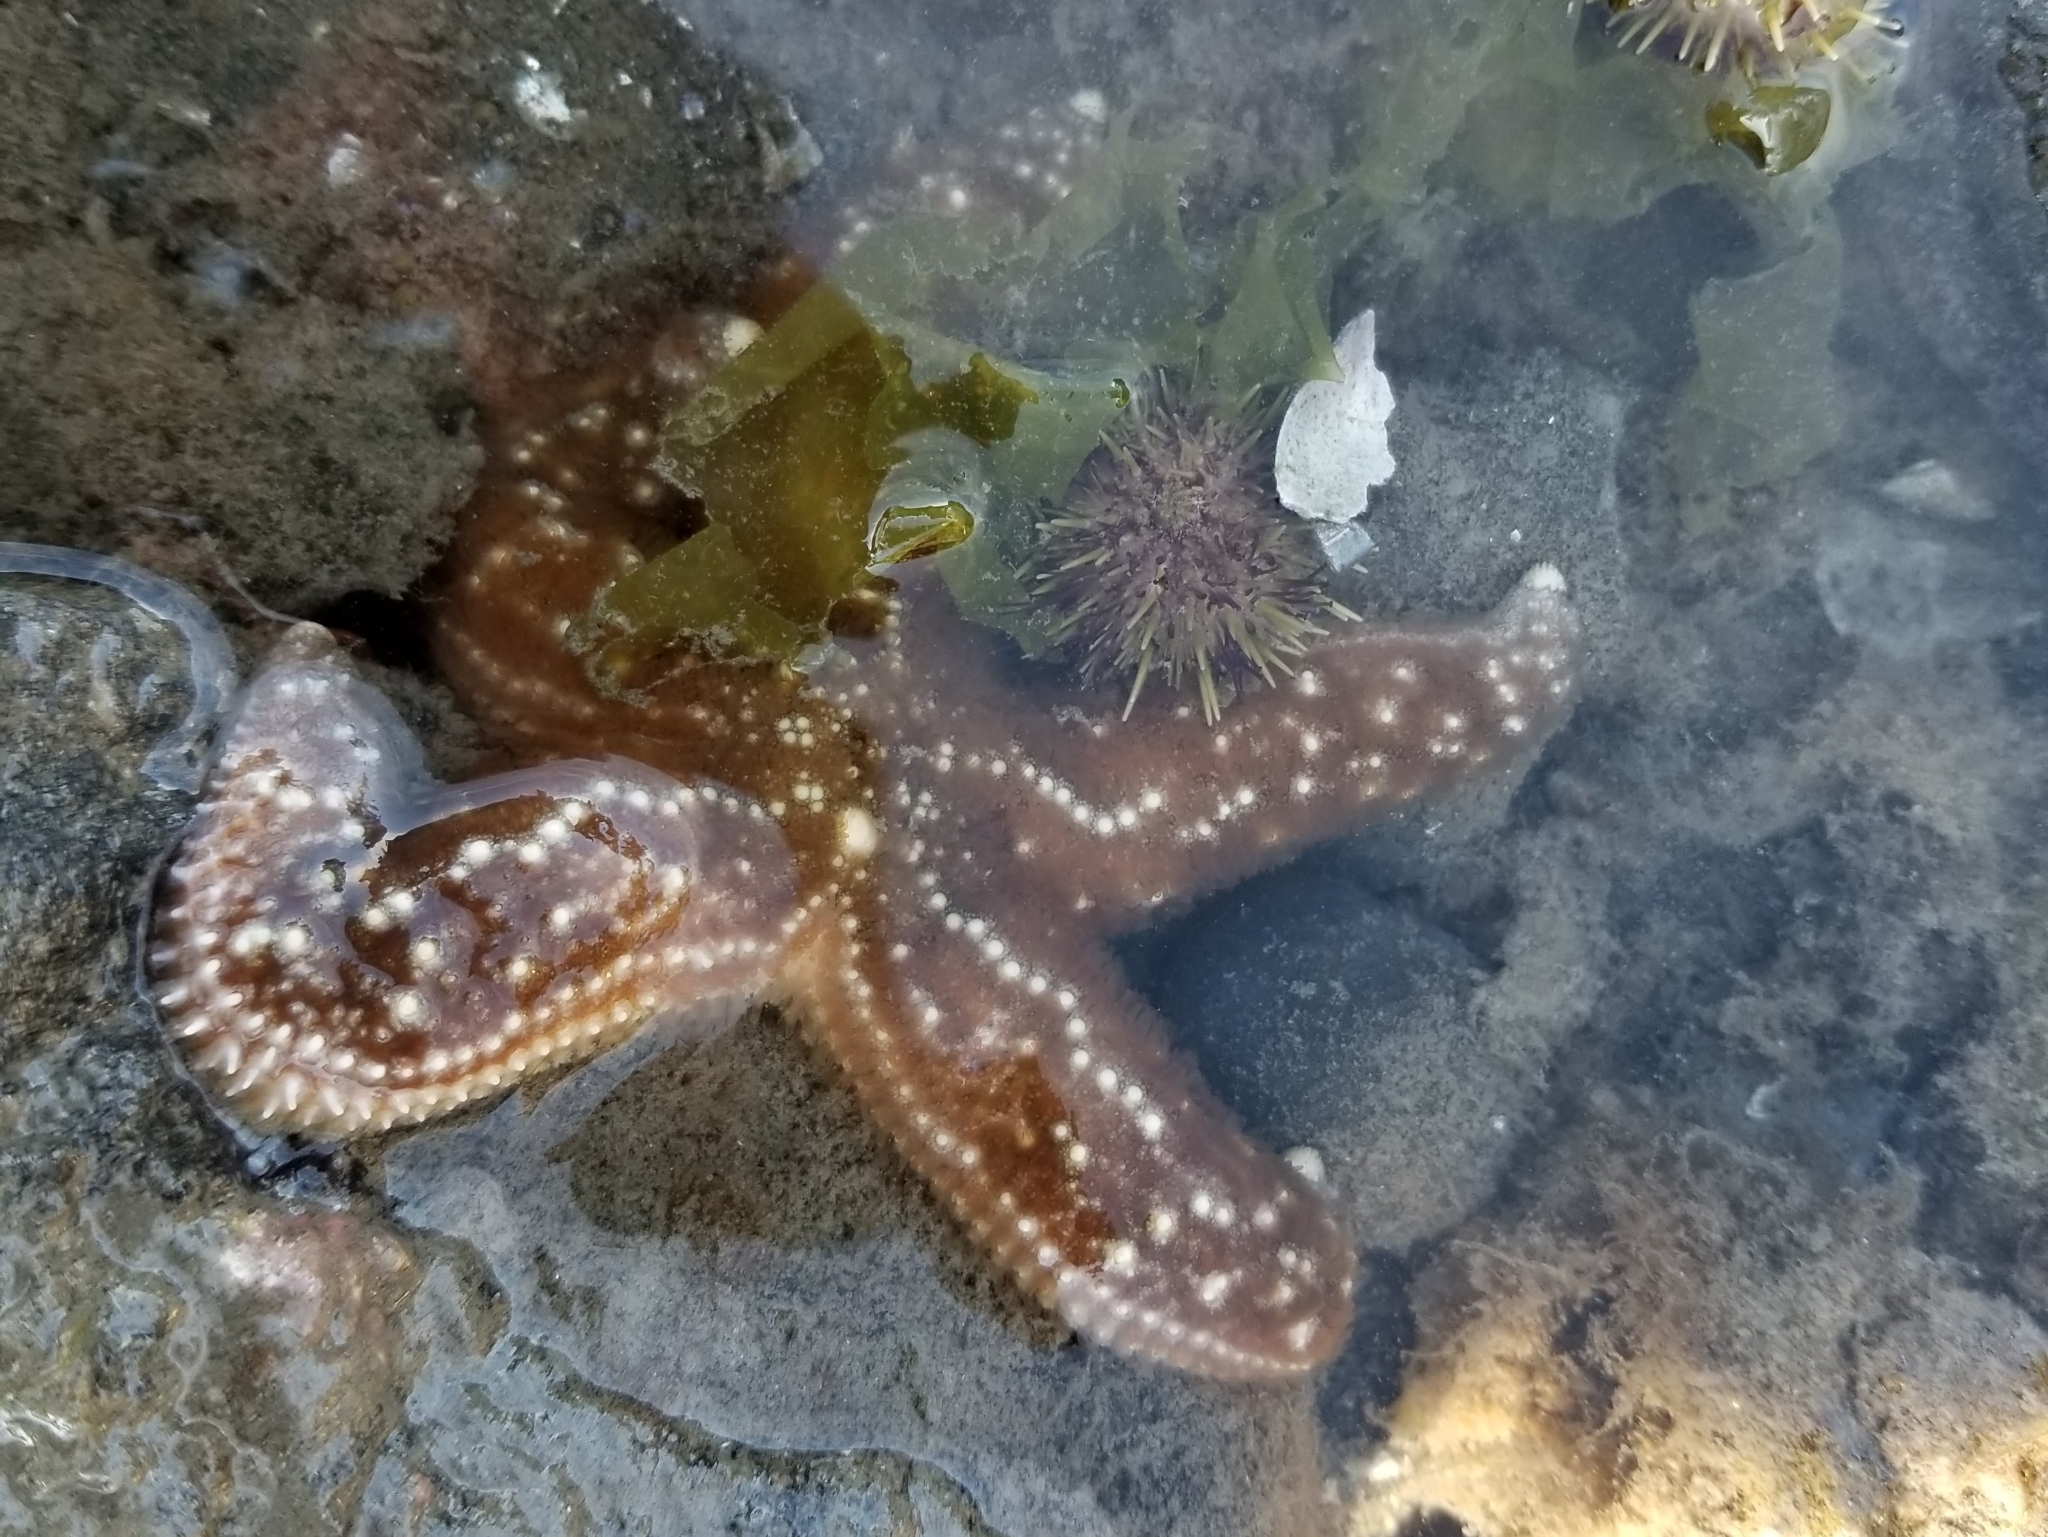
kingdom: Animalia
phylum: Echinodermata
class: Asteroidea
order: Forcipulatida
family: Asteriidae
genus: Pisaster
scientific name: Pisaster ochraceus
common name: Ochre stars
